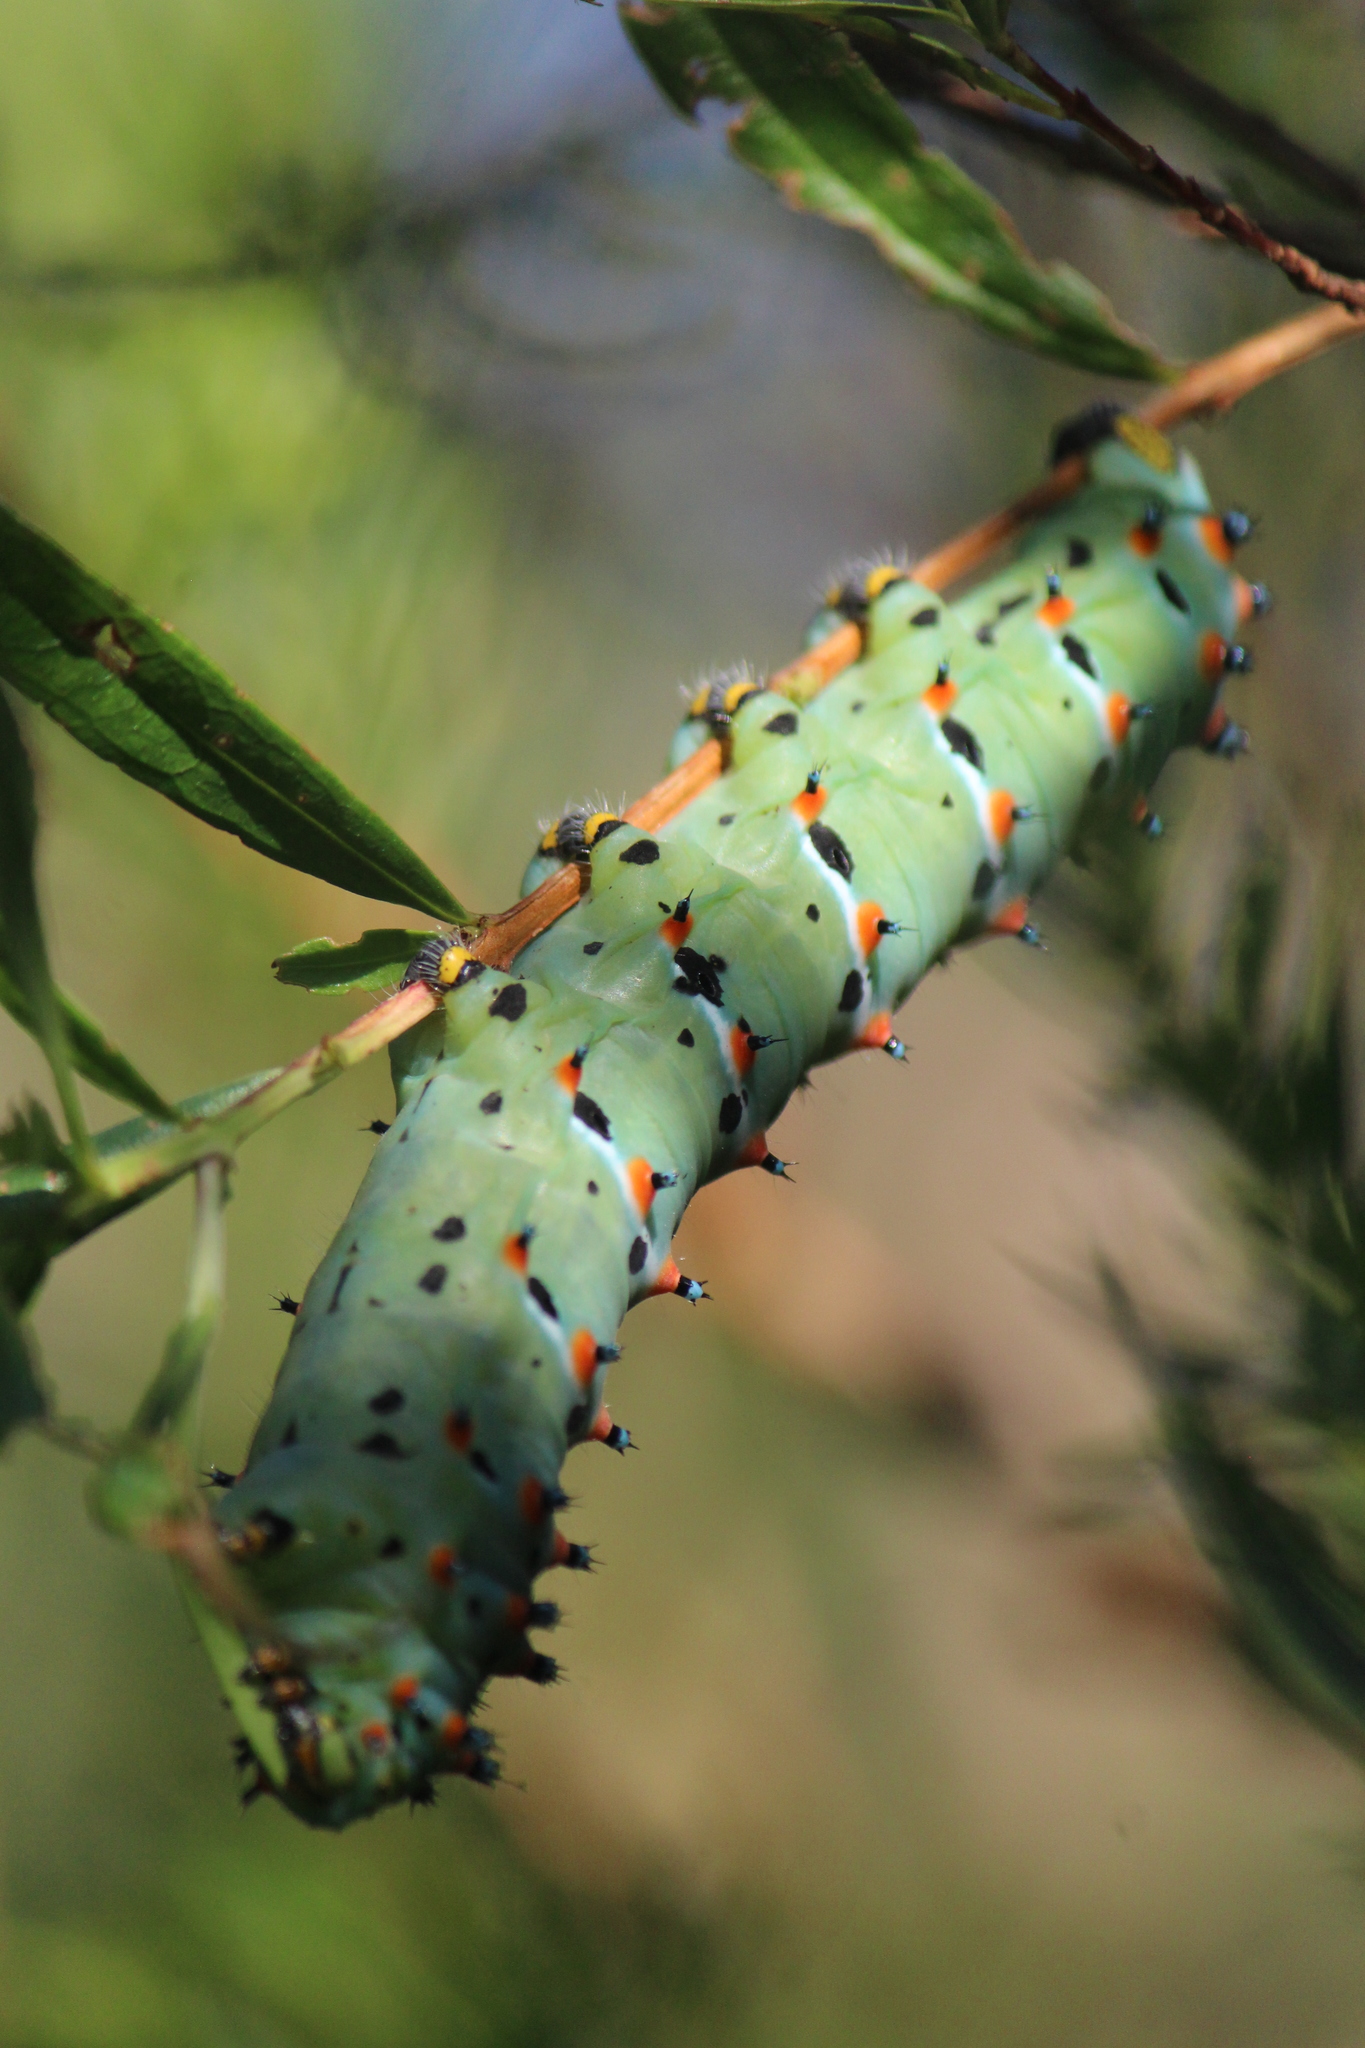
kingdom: Animalia
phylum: Arthropoda
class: Insecta
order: Lepidoptera
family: Saturniidae
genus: Eupackardia
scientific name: Eupackardia calleta
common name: Calleta silkmoth
